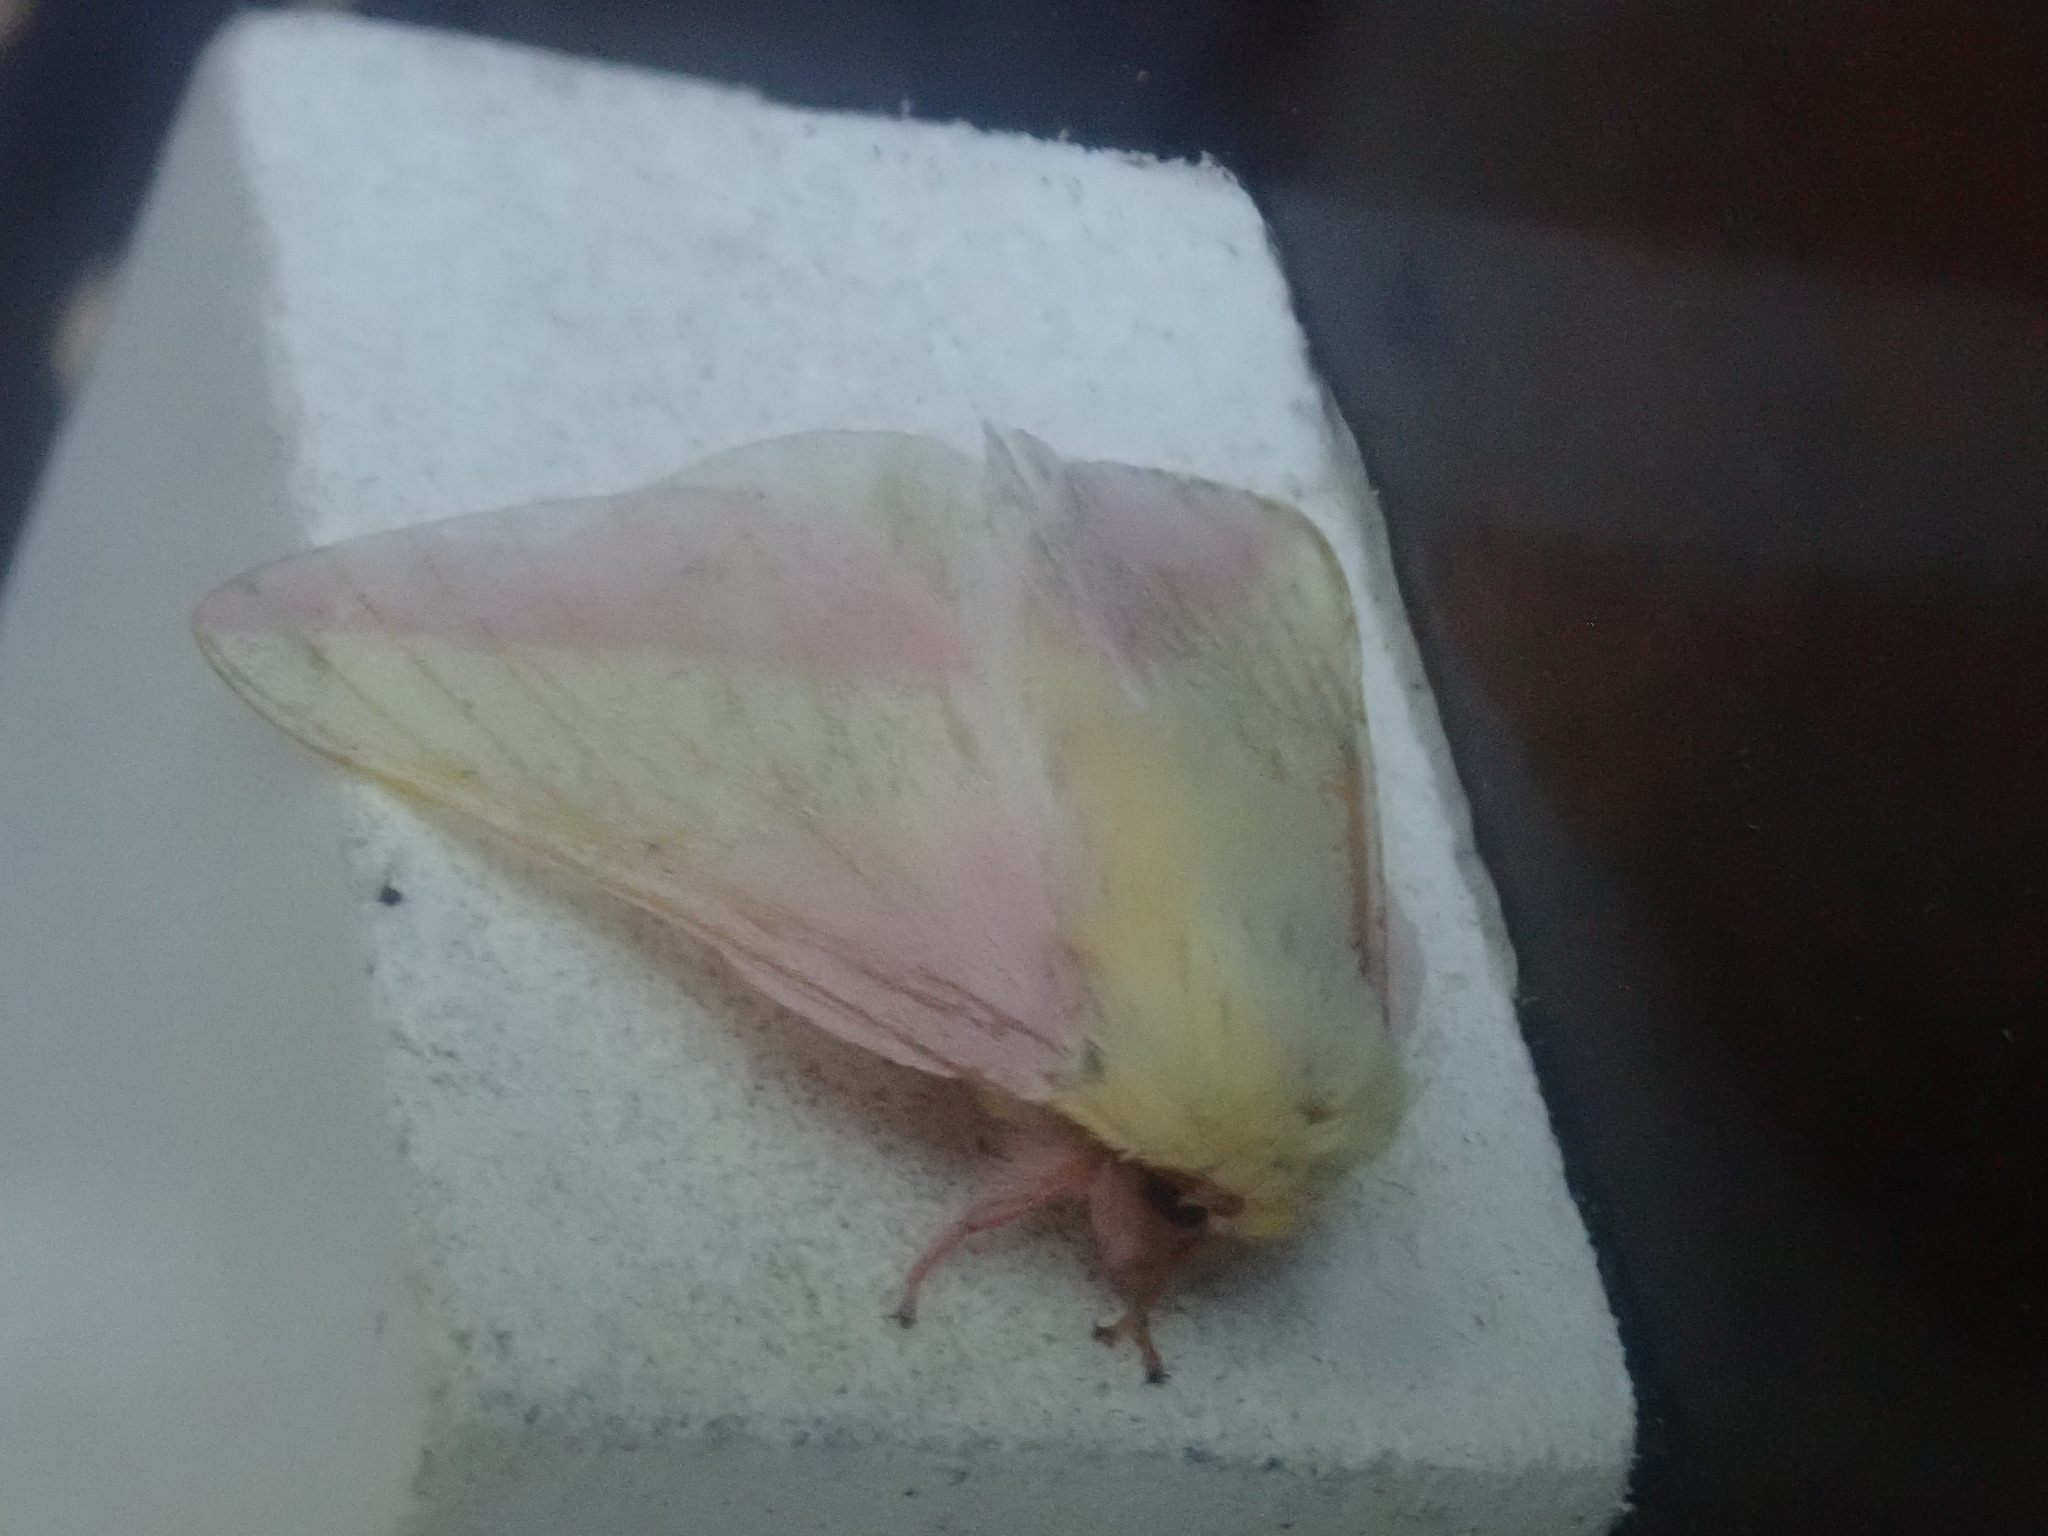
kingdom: Animalia
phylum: Arthropoda
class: Insecta
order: Lepidoptera
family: Saturniidae
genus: Dryocampa
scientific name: Dryocampa rubicunda
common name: Rosy maple moth
